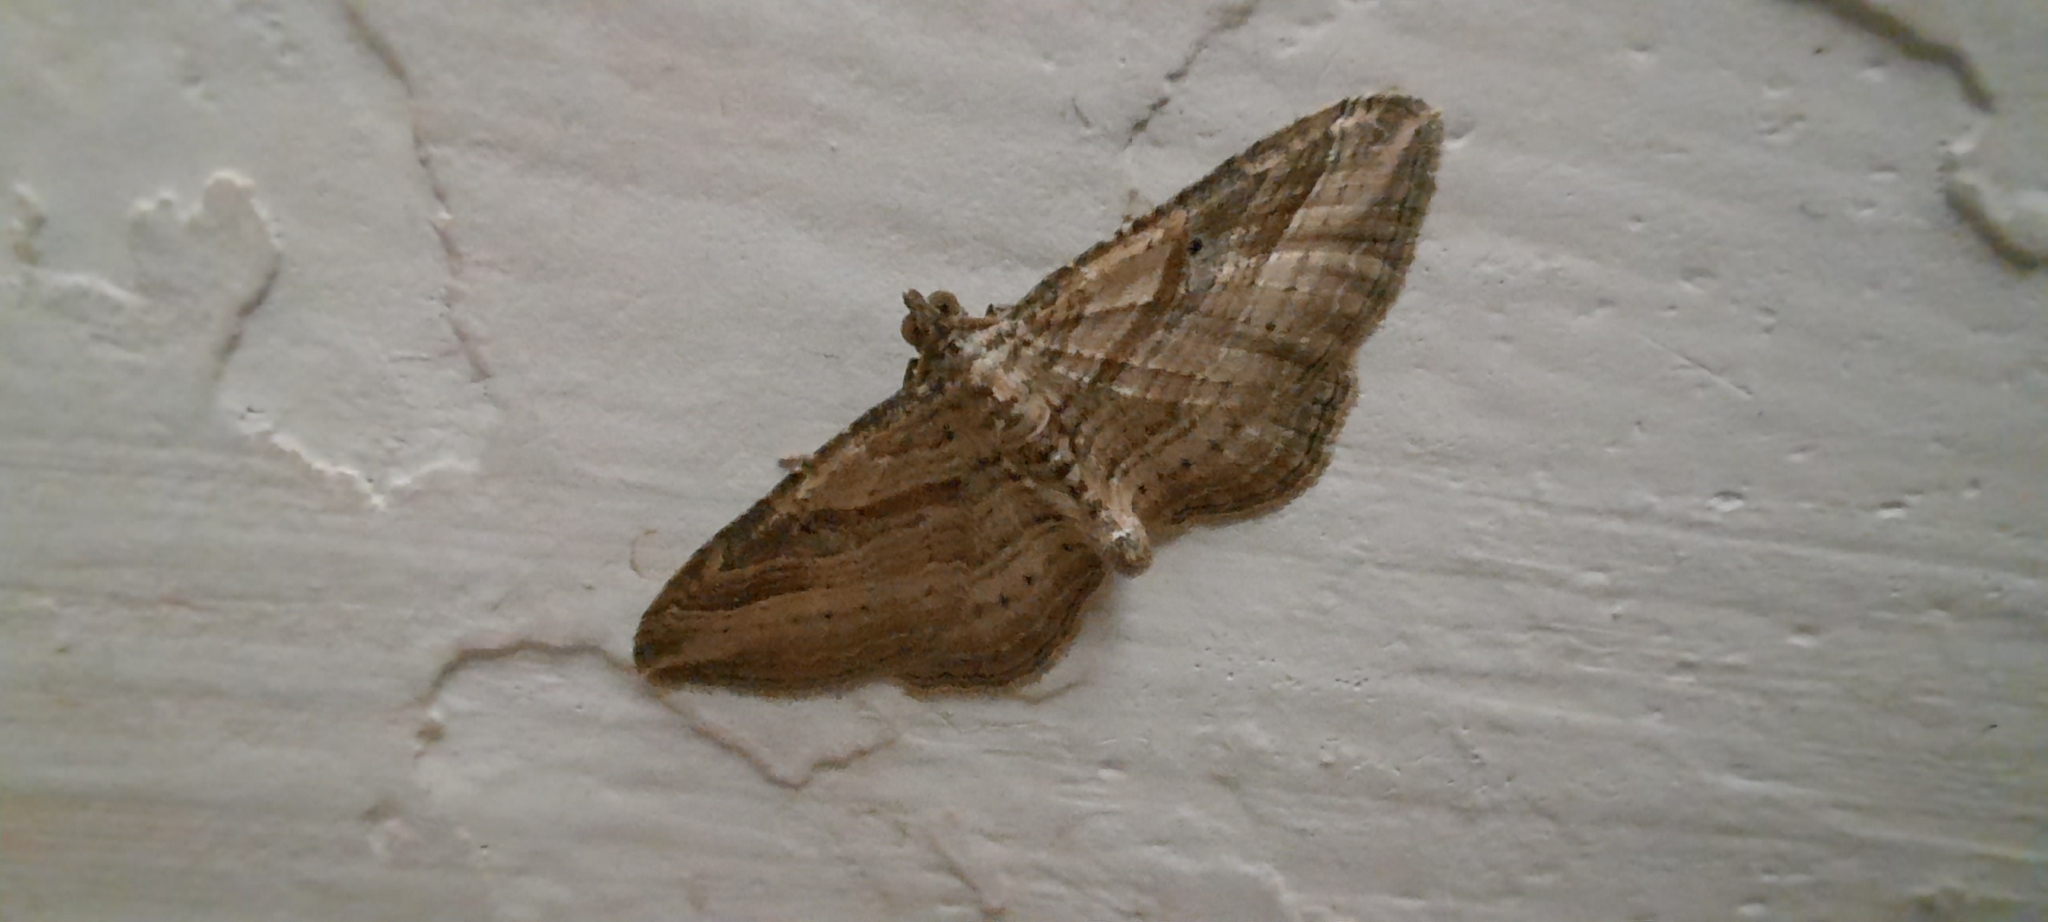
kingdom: Animalia
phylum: Arthropoda
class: Insecta
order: Lepidoptera
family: Geometridae
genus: Costaconvexa
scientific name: Costaconvexa polygrammata
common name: Many-lined
